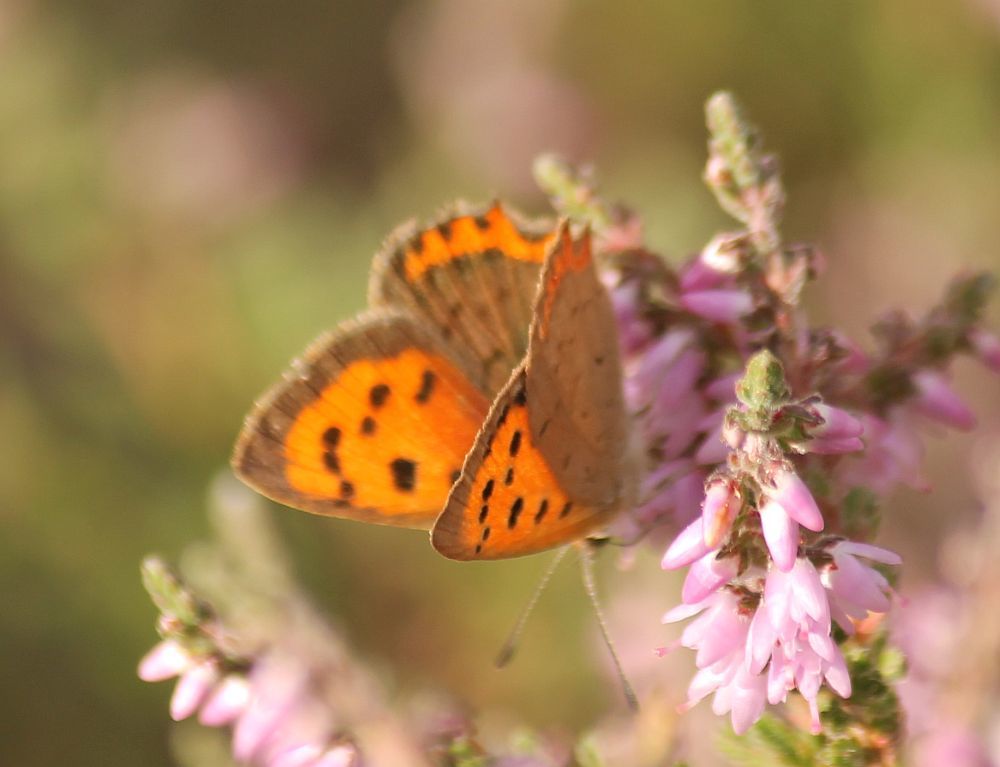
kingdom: Animalia
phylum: Arthropoda
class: Insecta
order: Lepidoptera
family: Lycaenidae
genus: Lycaena
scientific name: Lycaena phlaeas
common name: Small copper
